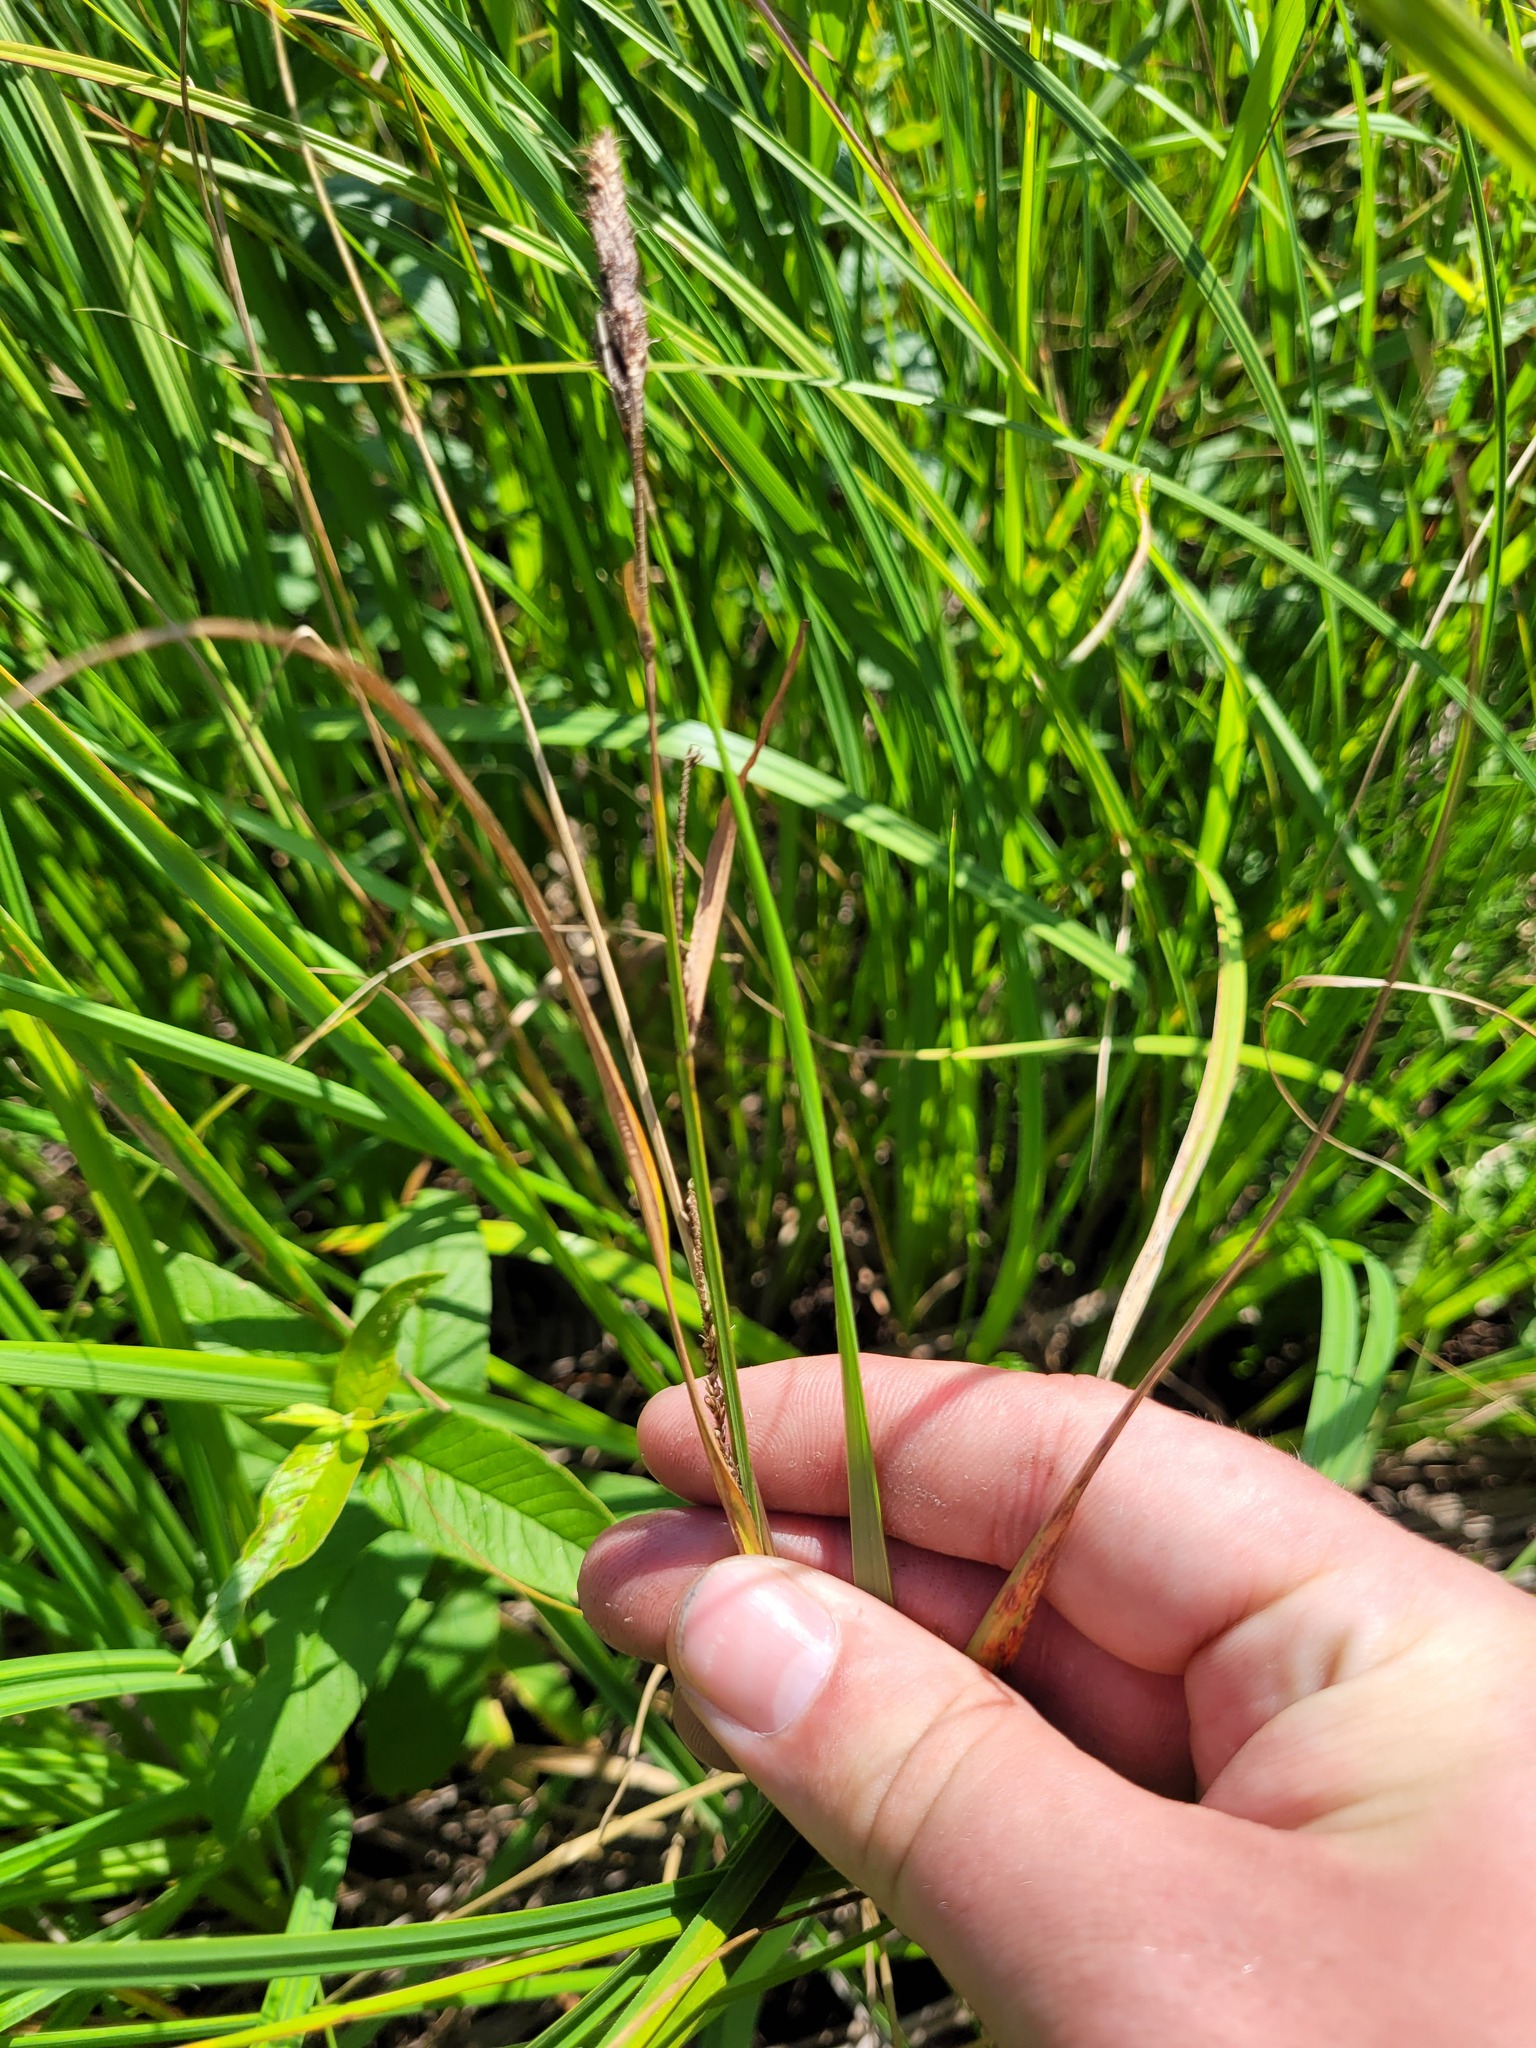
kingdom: Plantae
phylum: Tracheophyta
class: Liliopsida
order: Poales
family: Cyperaceae
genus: Carex
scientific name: Carex acuta
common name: Slender tufted-sedge
